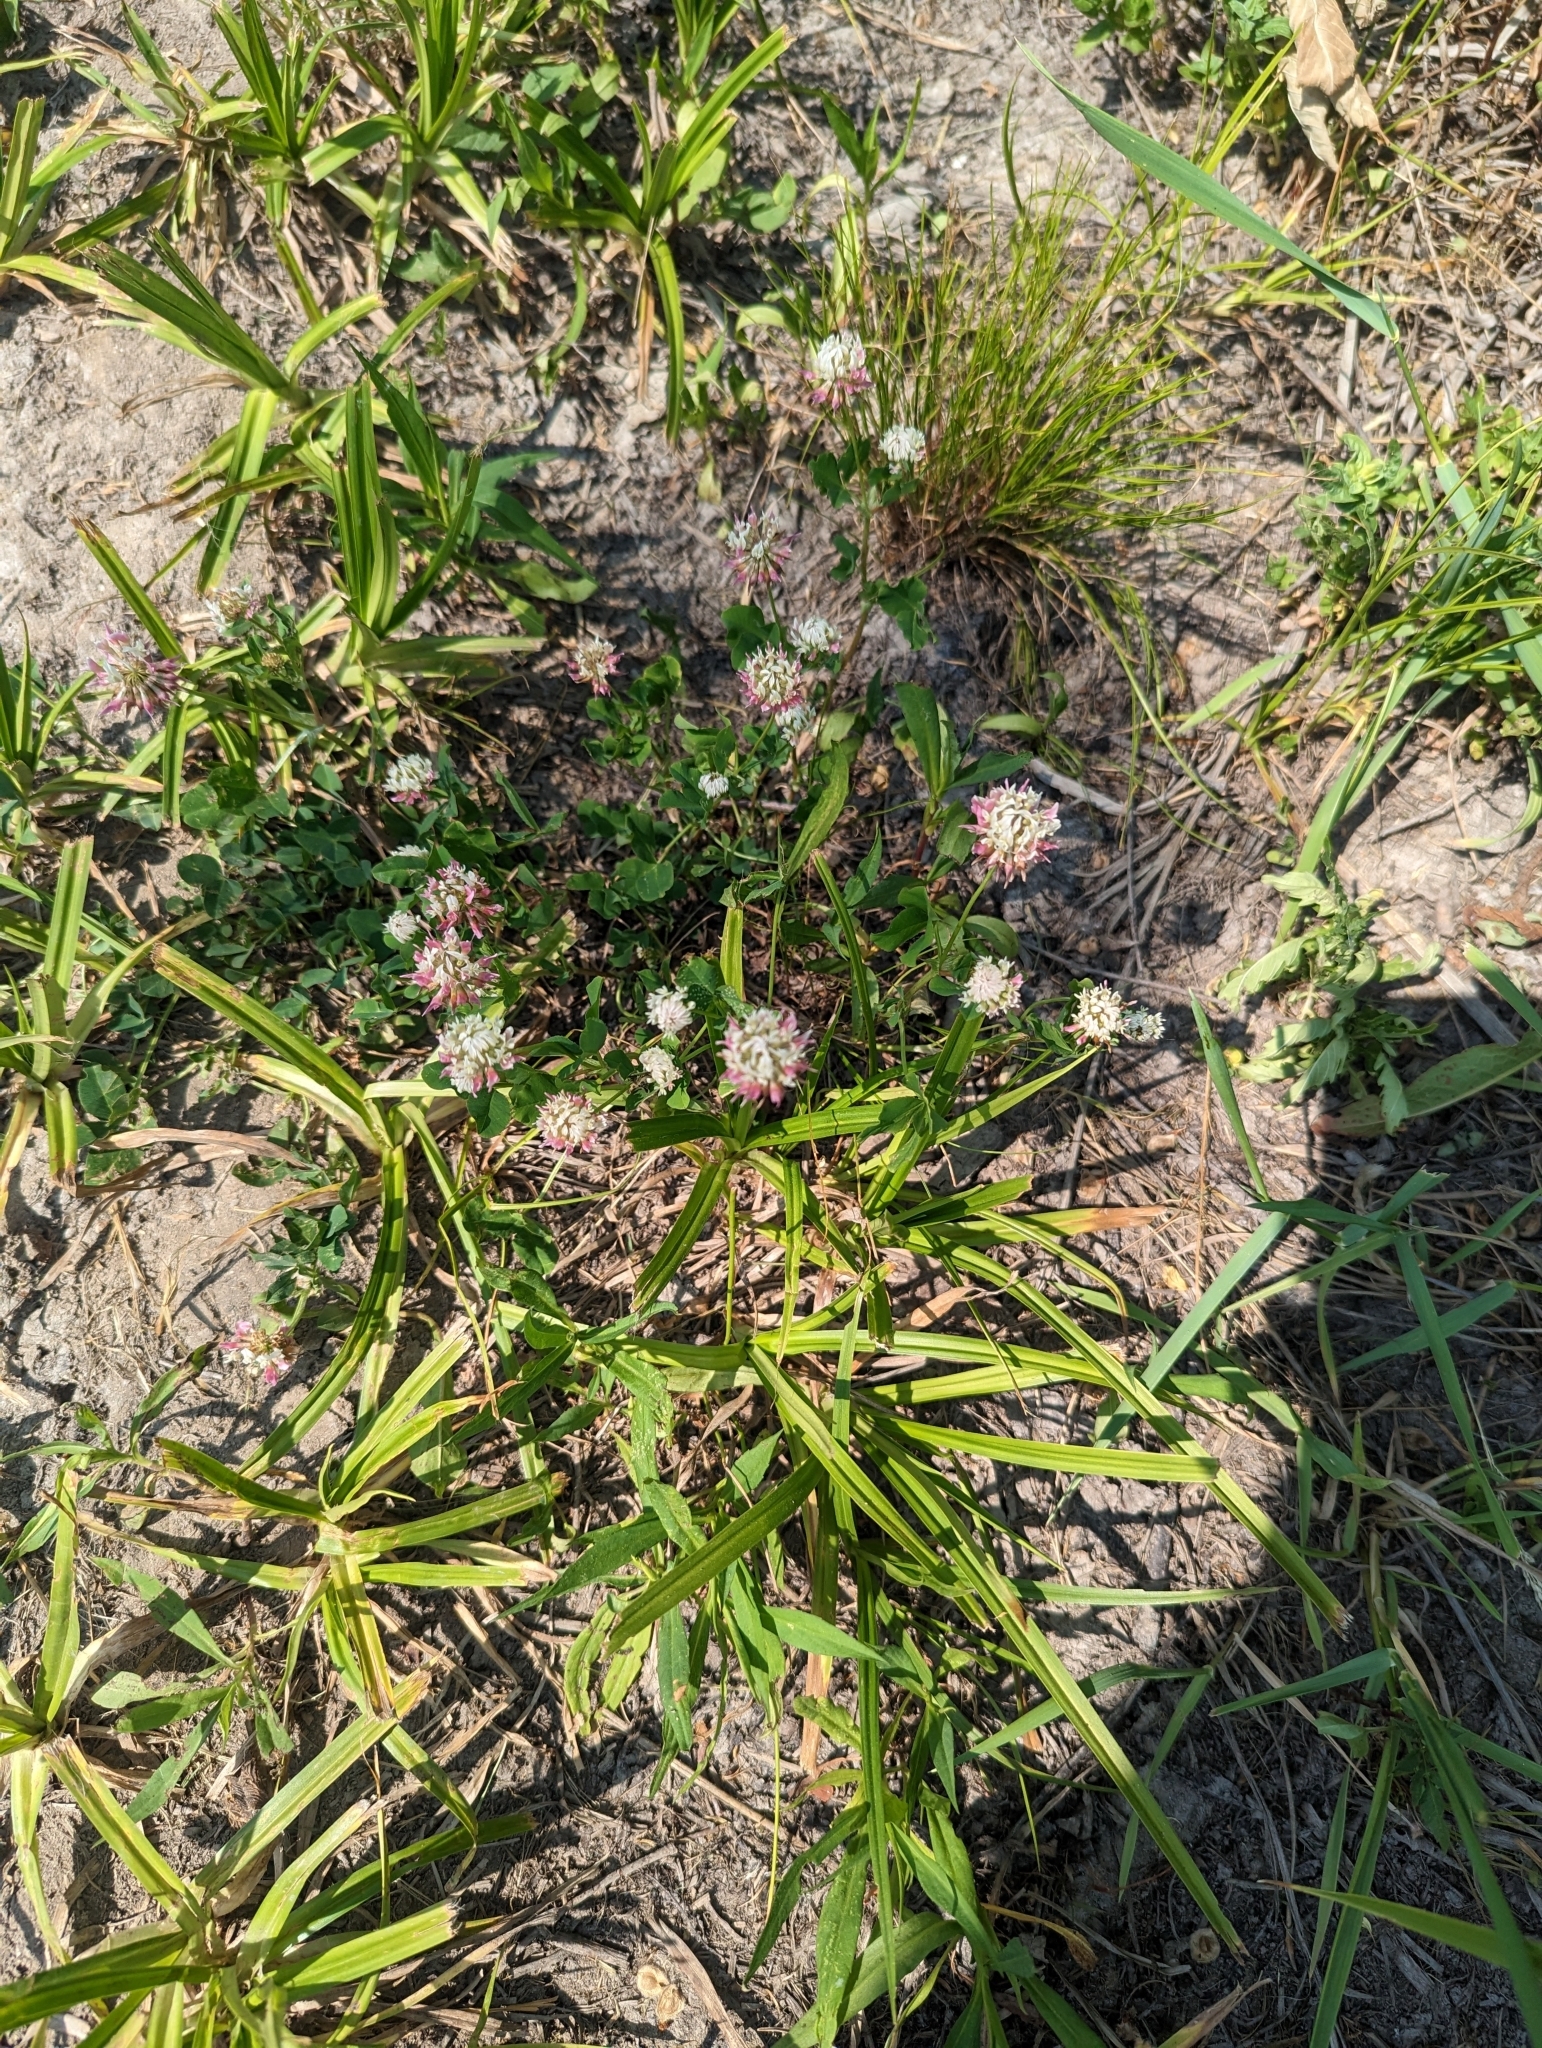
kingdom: Plantae
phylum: Tracheophyta
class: Magnoliopsida
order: Fabales
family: Fabaceae
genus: Trifolium
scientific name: Trifolium hybridum
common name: Alsike clover
